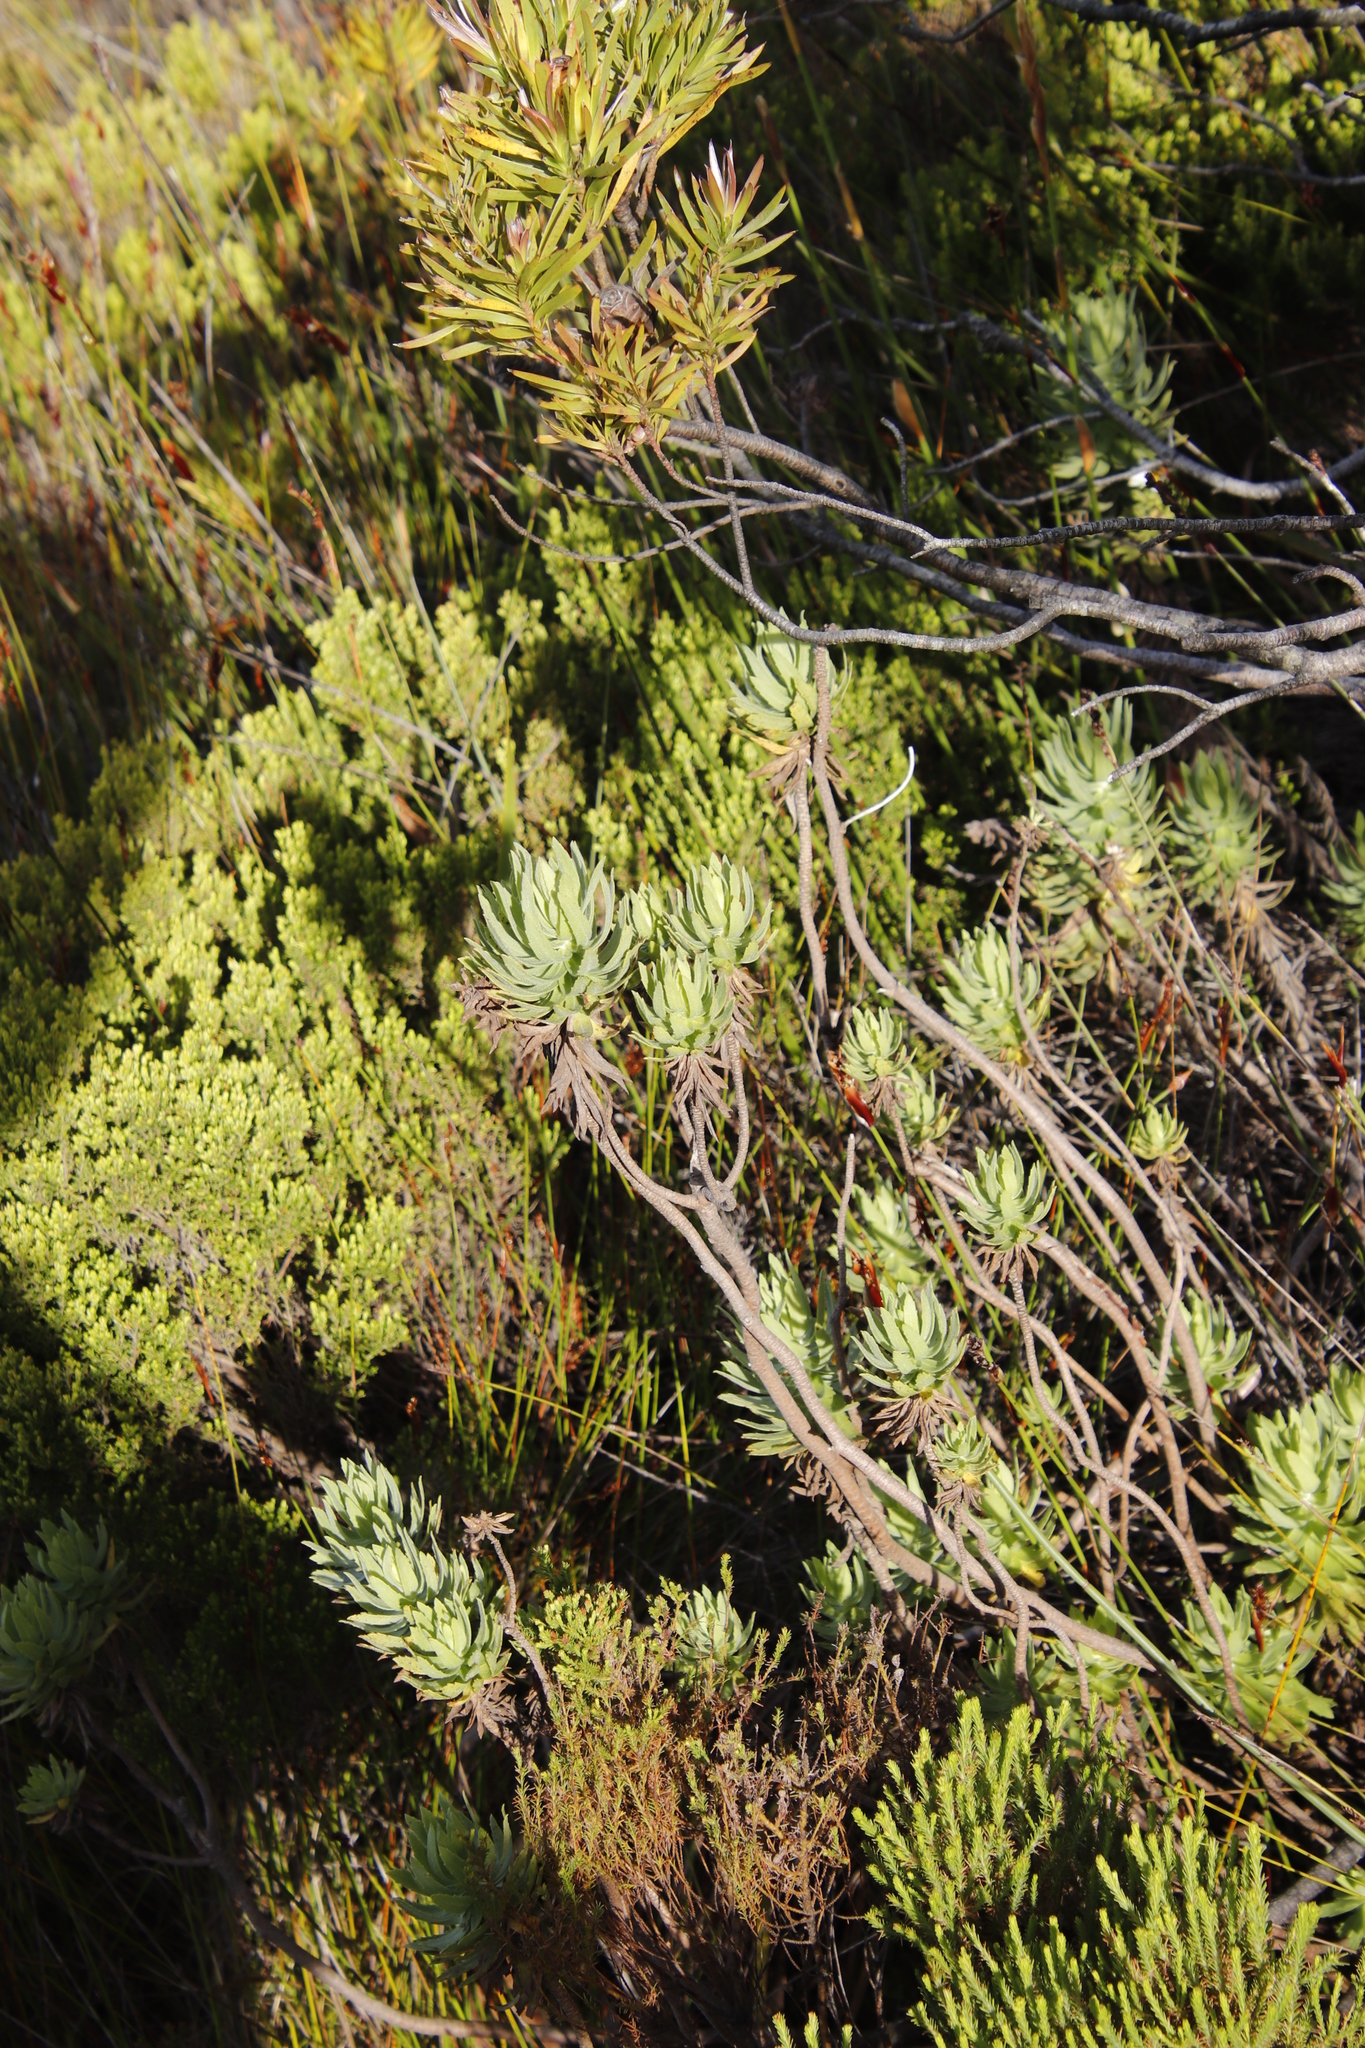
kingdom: Plantae
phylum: Tracheophyta
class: Magnoliopsida
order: Asterales
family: Asteraceae
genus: Osmitopsis
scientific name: Osmitopsis asteriscoides
